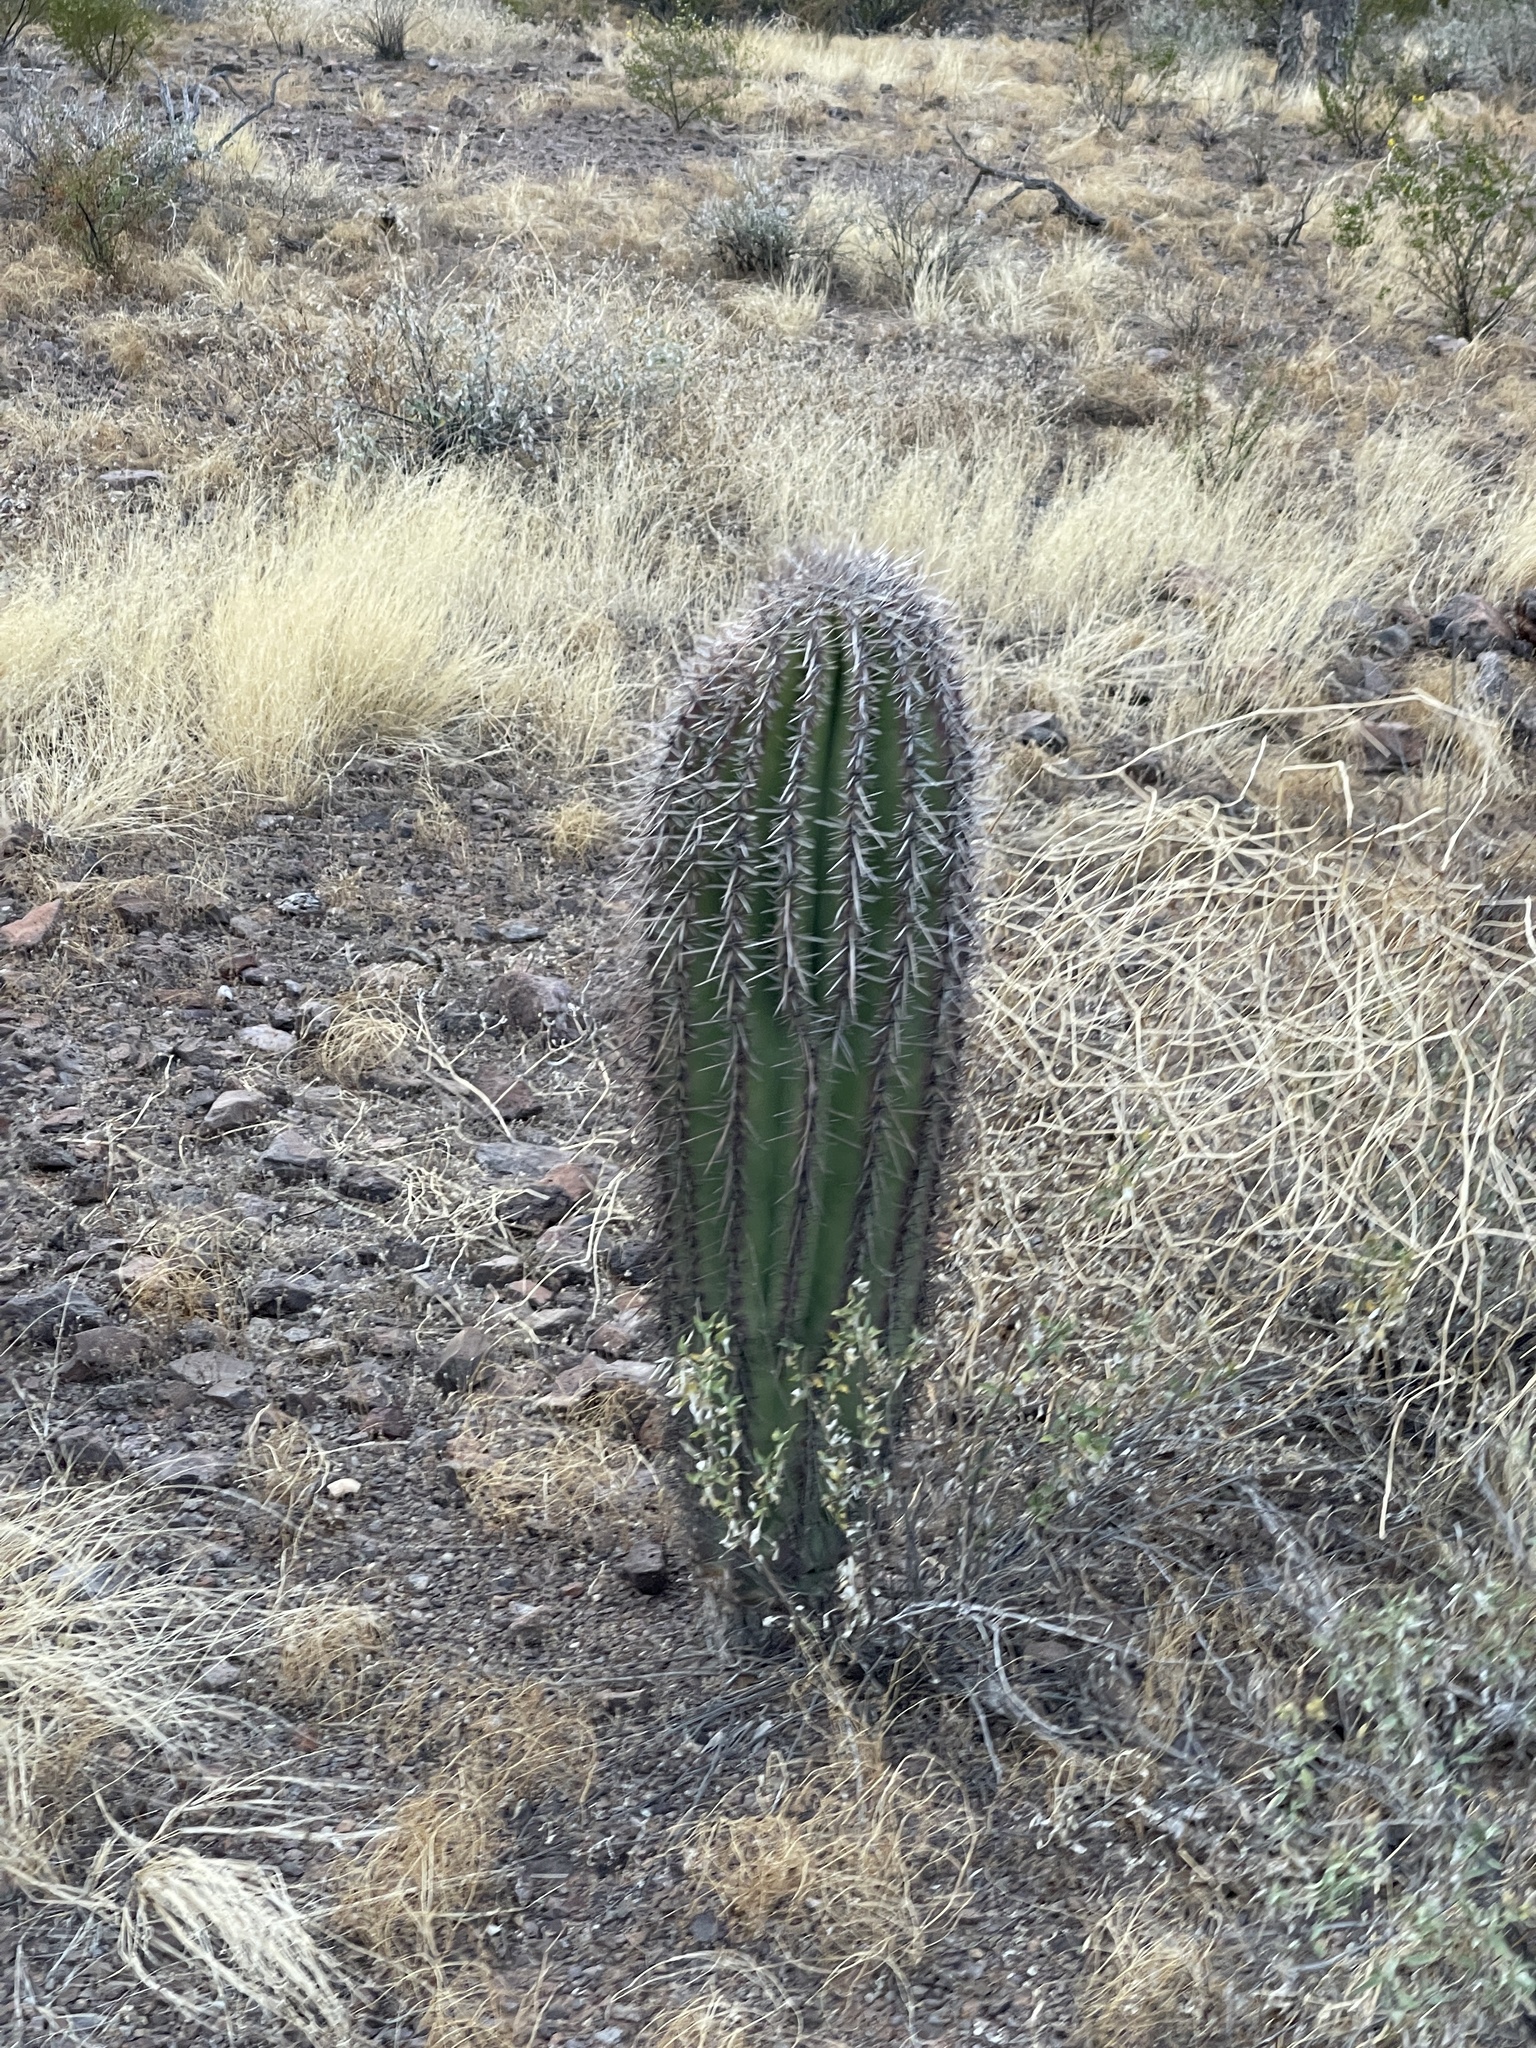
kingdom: Plantae
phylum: Tracheophyta
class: Magnoliopsida
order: Caryophyllales
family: Cactaceae
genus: Carnegiea
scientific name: Carnegiea gigantea
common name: Saguaro
